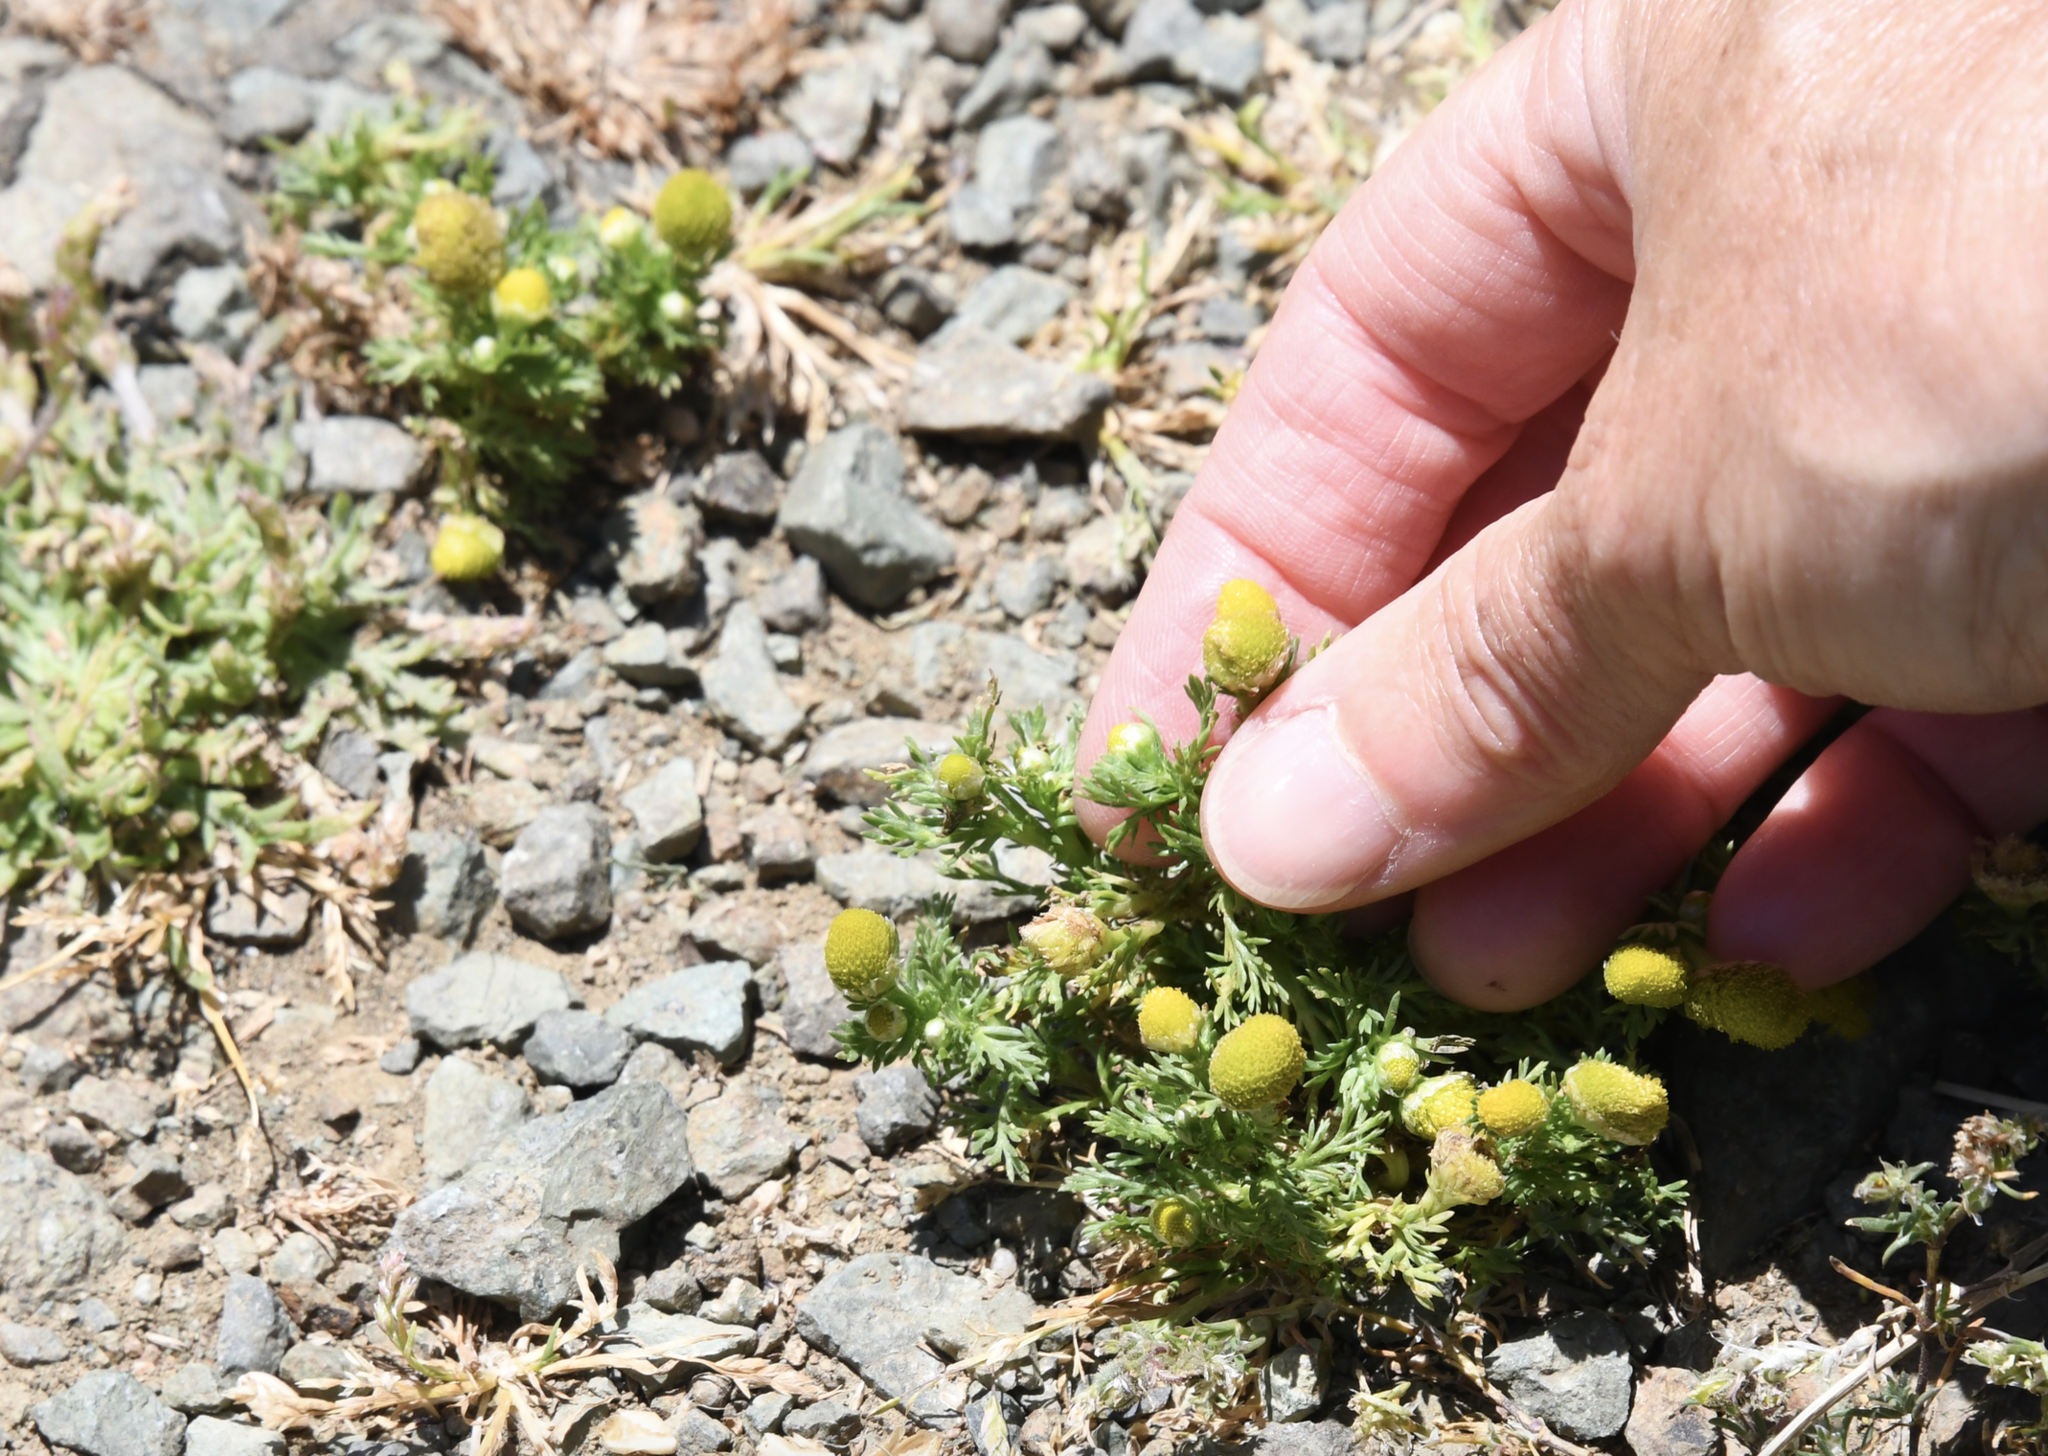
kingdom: Plantae
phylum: Tracheophyta
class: Magnoliopsida
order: Asterales
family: Asteraceae
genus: Matricaria
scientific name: Matricaria discoidea
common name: Disc mayweed
